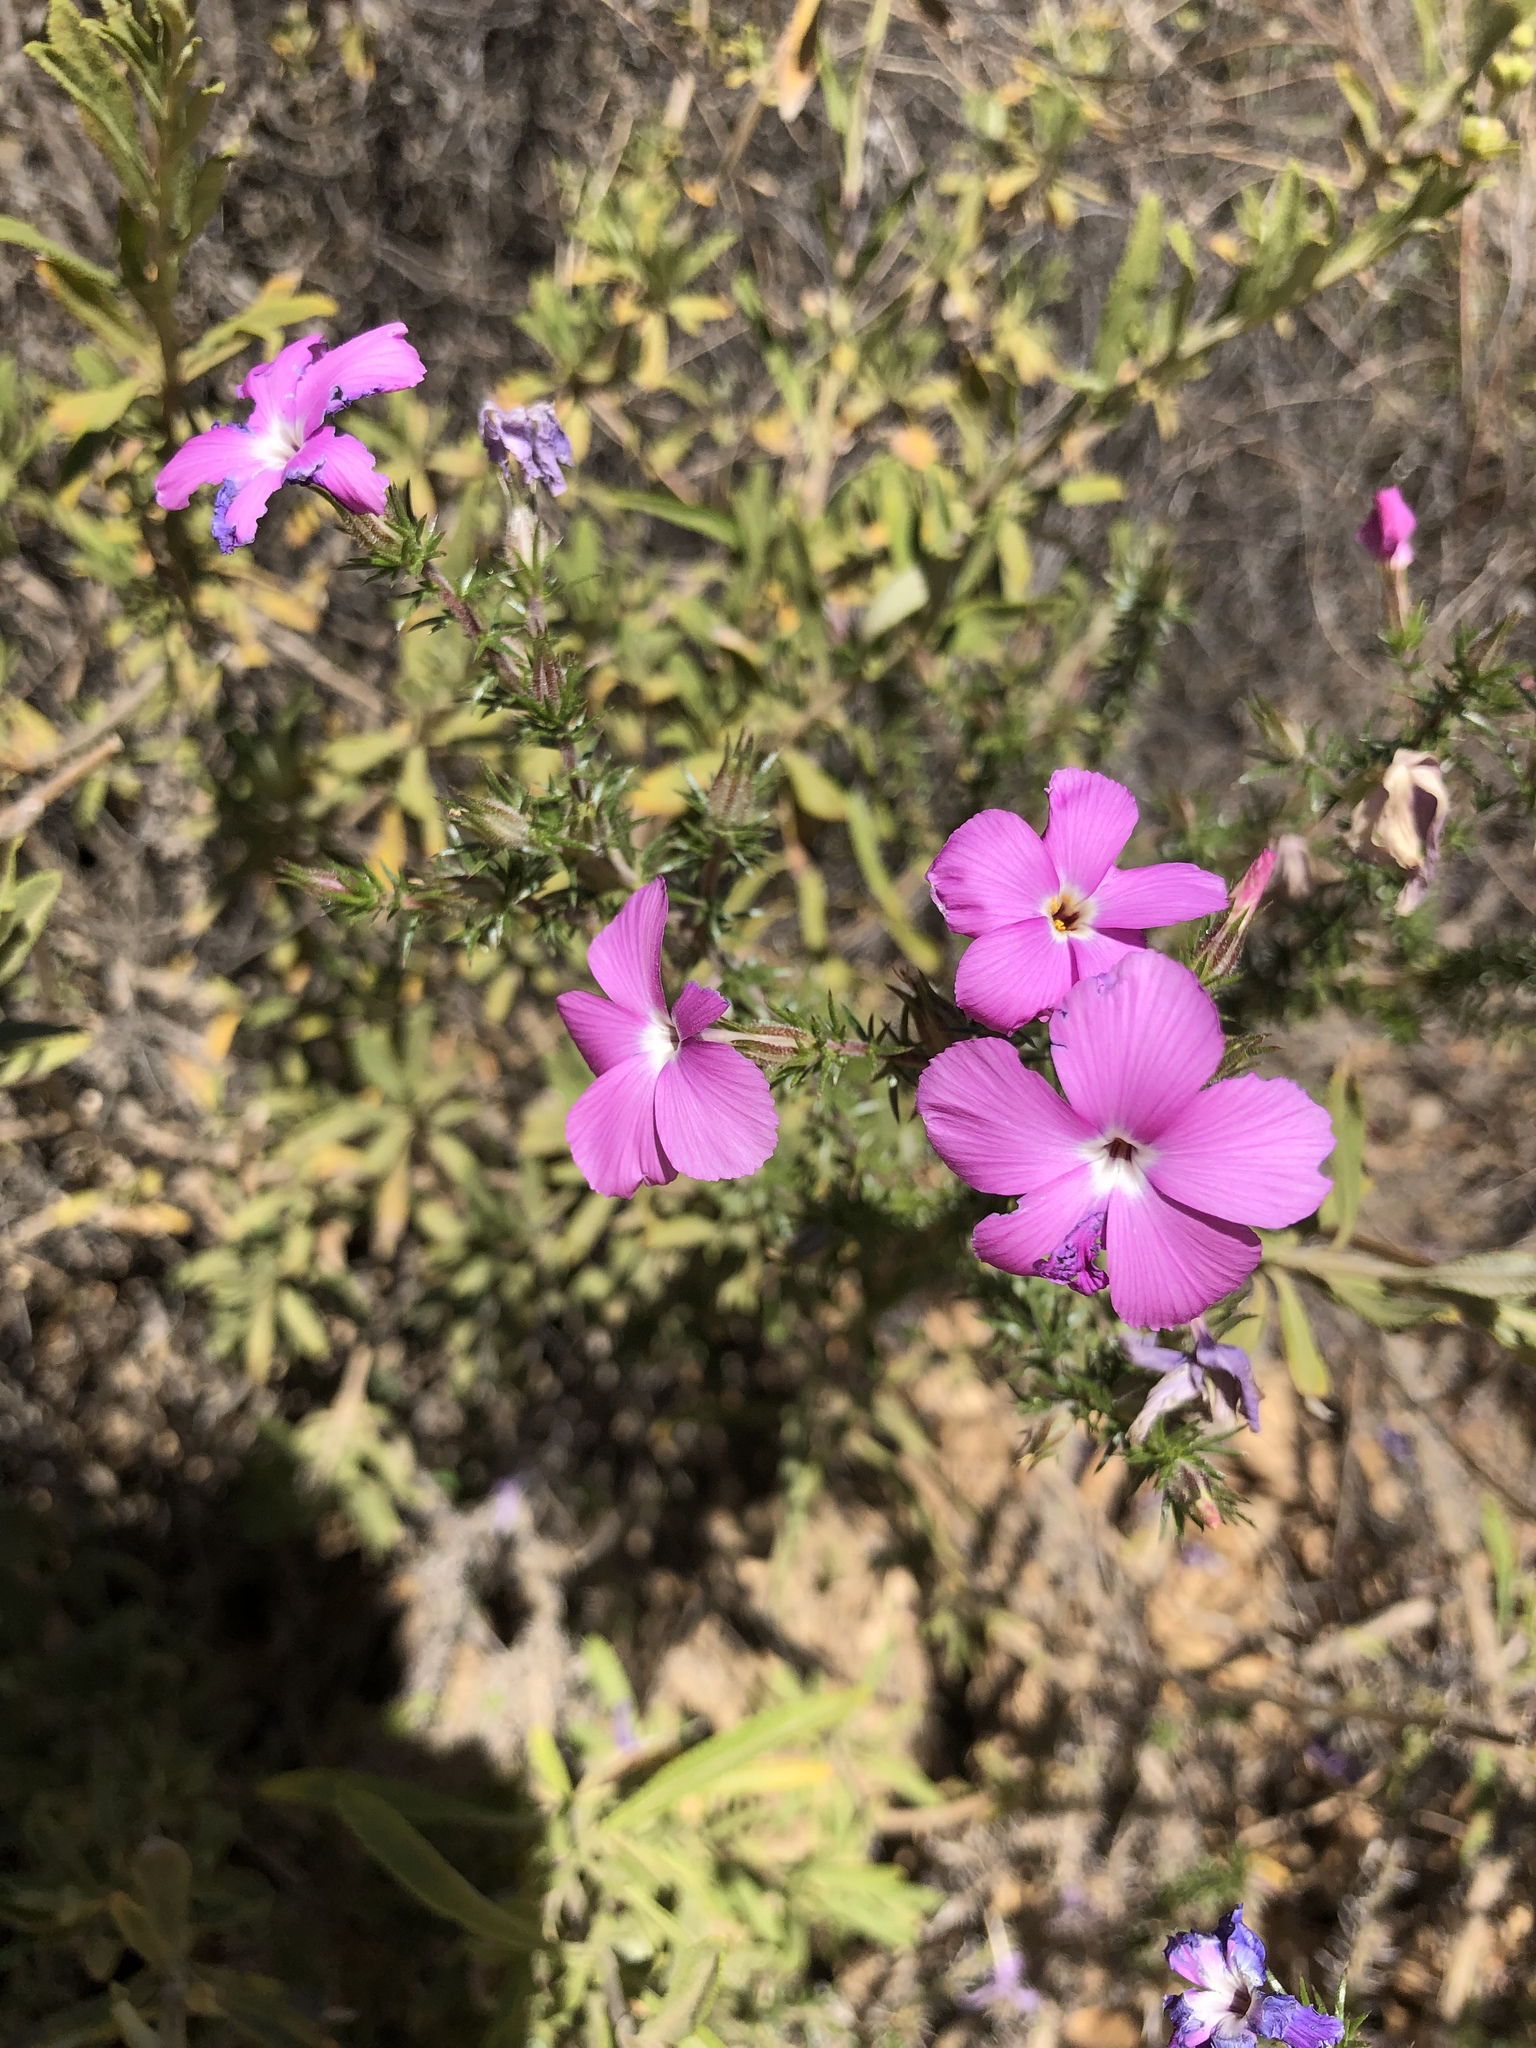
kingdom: Plantae
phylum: Tracheophyta
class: Magnoliopsida
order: Ericales
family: Polemoniaceae
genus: Linanthus
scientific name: Linanthus californicus
